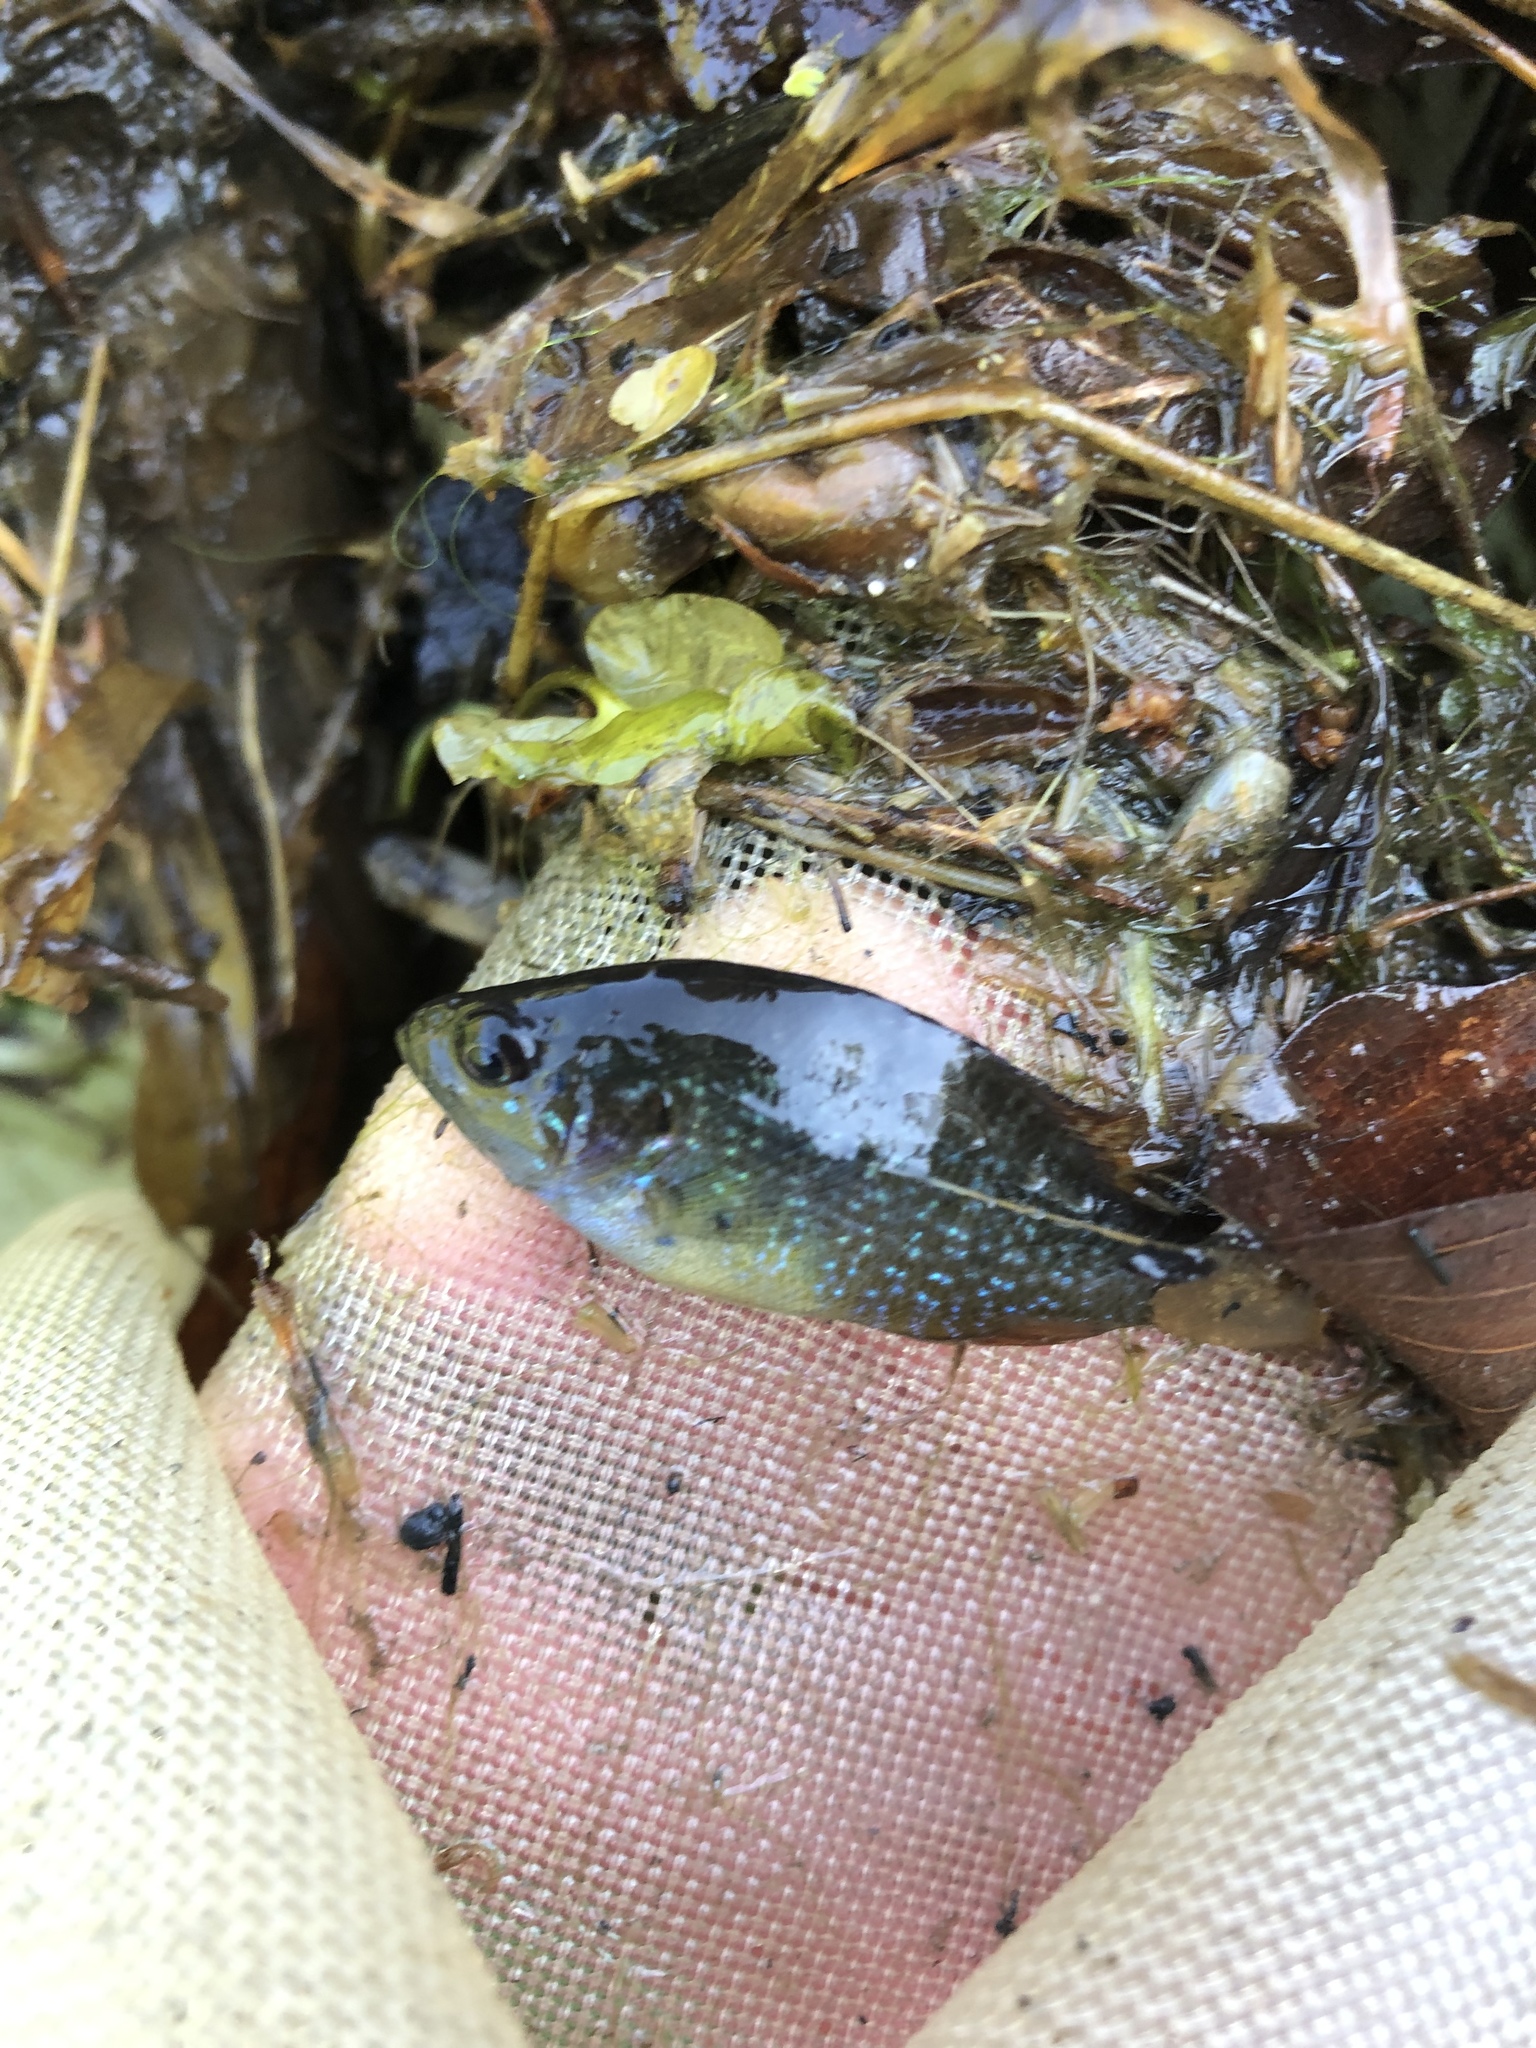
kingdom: Animalia
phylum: Chordata
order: Perciformes
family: Centrarchidae
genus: Lepomis
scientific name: Lepomis cyanellus
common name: Green sunfish
